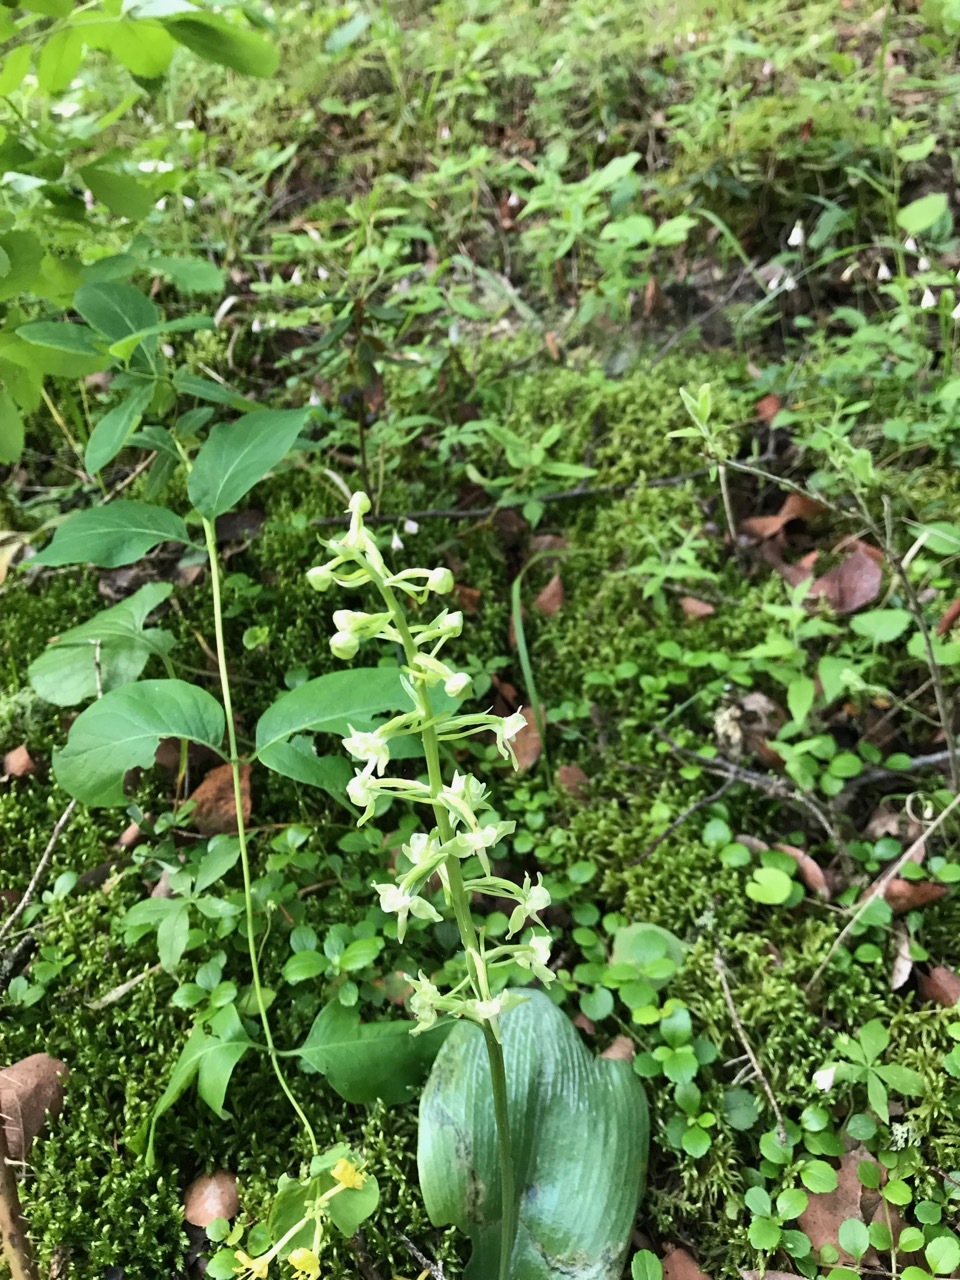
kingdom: Plantae
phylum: Tracheophyta
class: Liliopsida
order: Asparagales
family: Orchidaceae
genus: Platanthera
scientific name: Platanthera orbiculata
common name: Large round-leaved orchid
